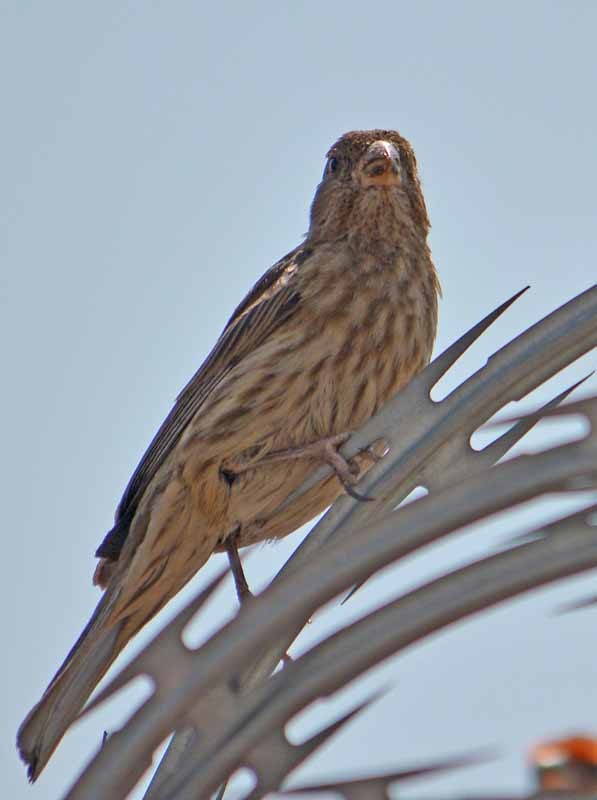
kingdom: Animalia
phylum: Chordata
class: Aves
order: Passeriformes
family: Fringillidae
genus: Haemorhous
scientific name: Haemorhous mexicanus
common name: House finch
